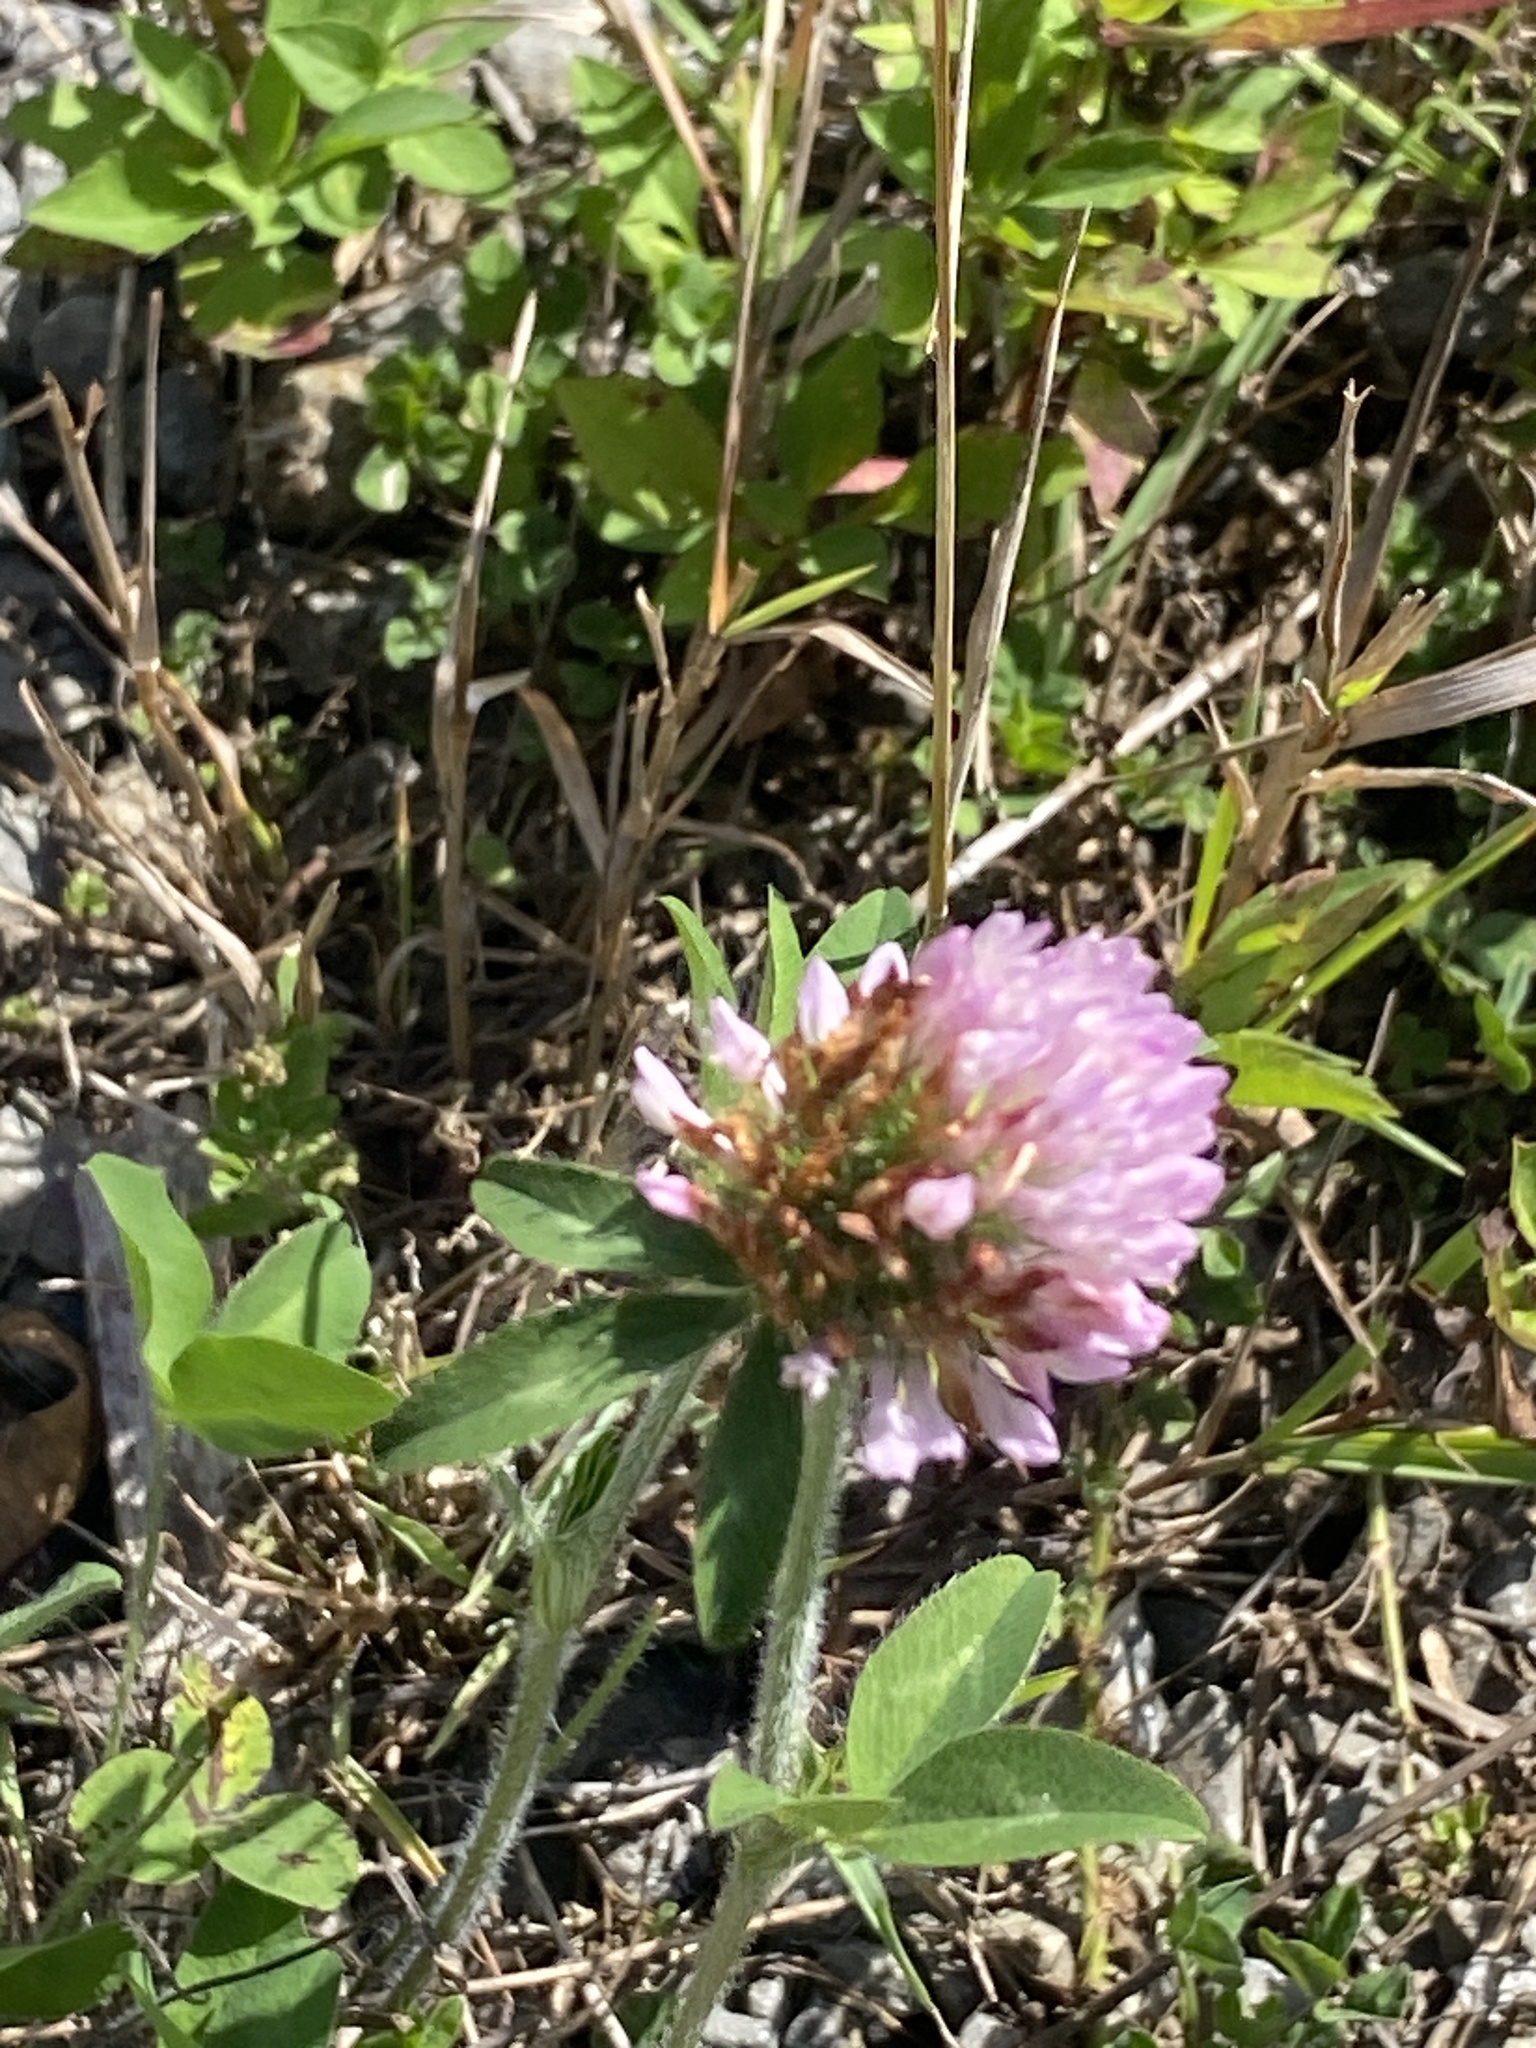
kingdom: Plantae
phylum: Tracheophyta
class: Magnoliopsida
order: Fabales
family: Fabaceae
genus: Trifolium
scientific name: Trifolium pratense
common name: Red clover
